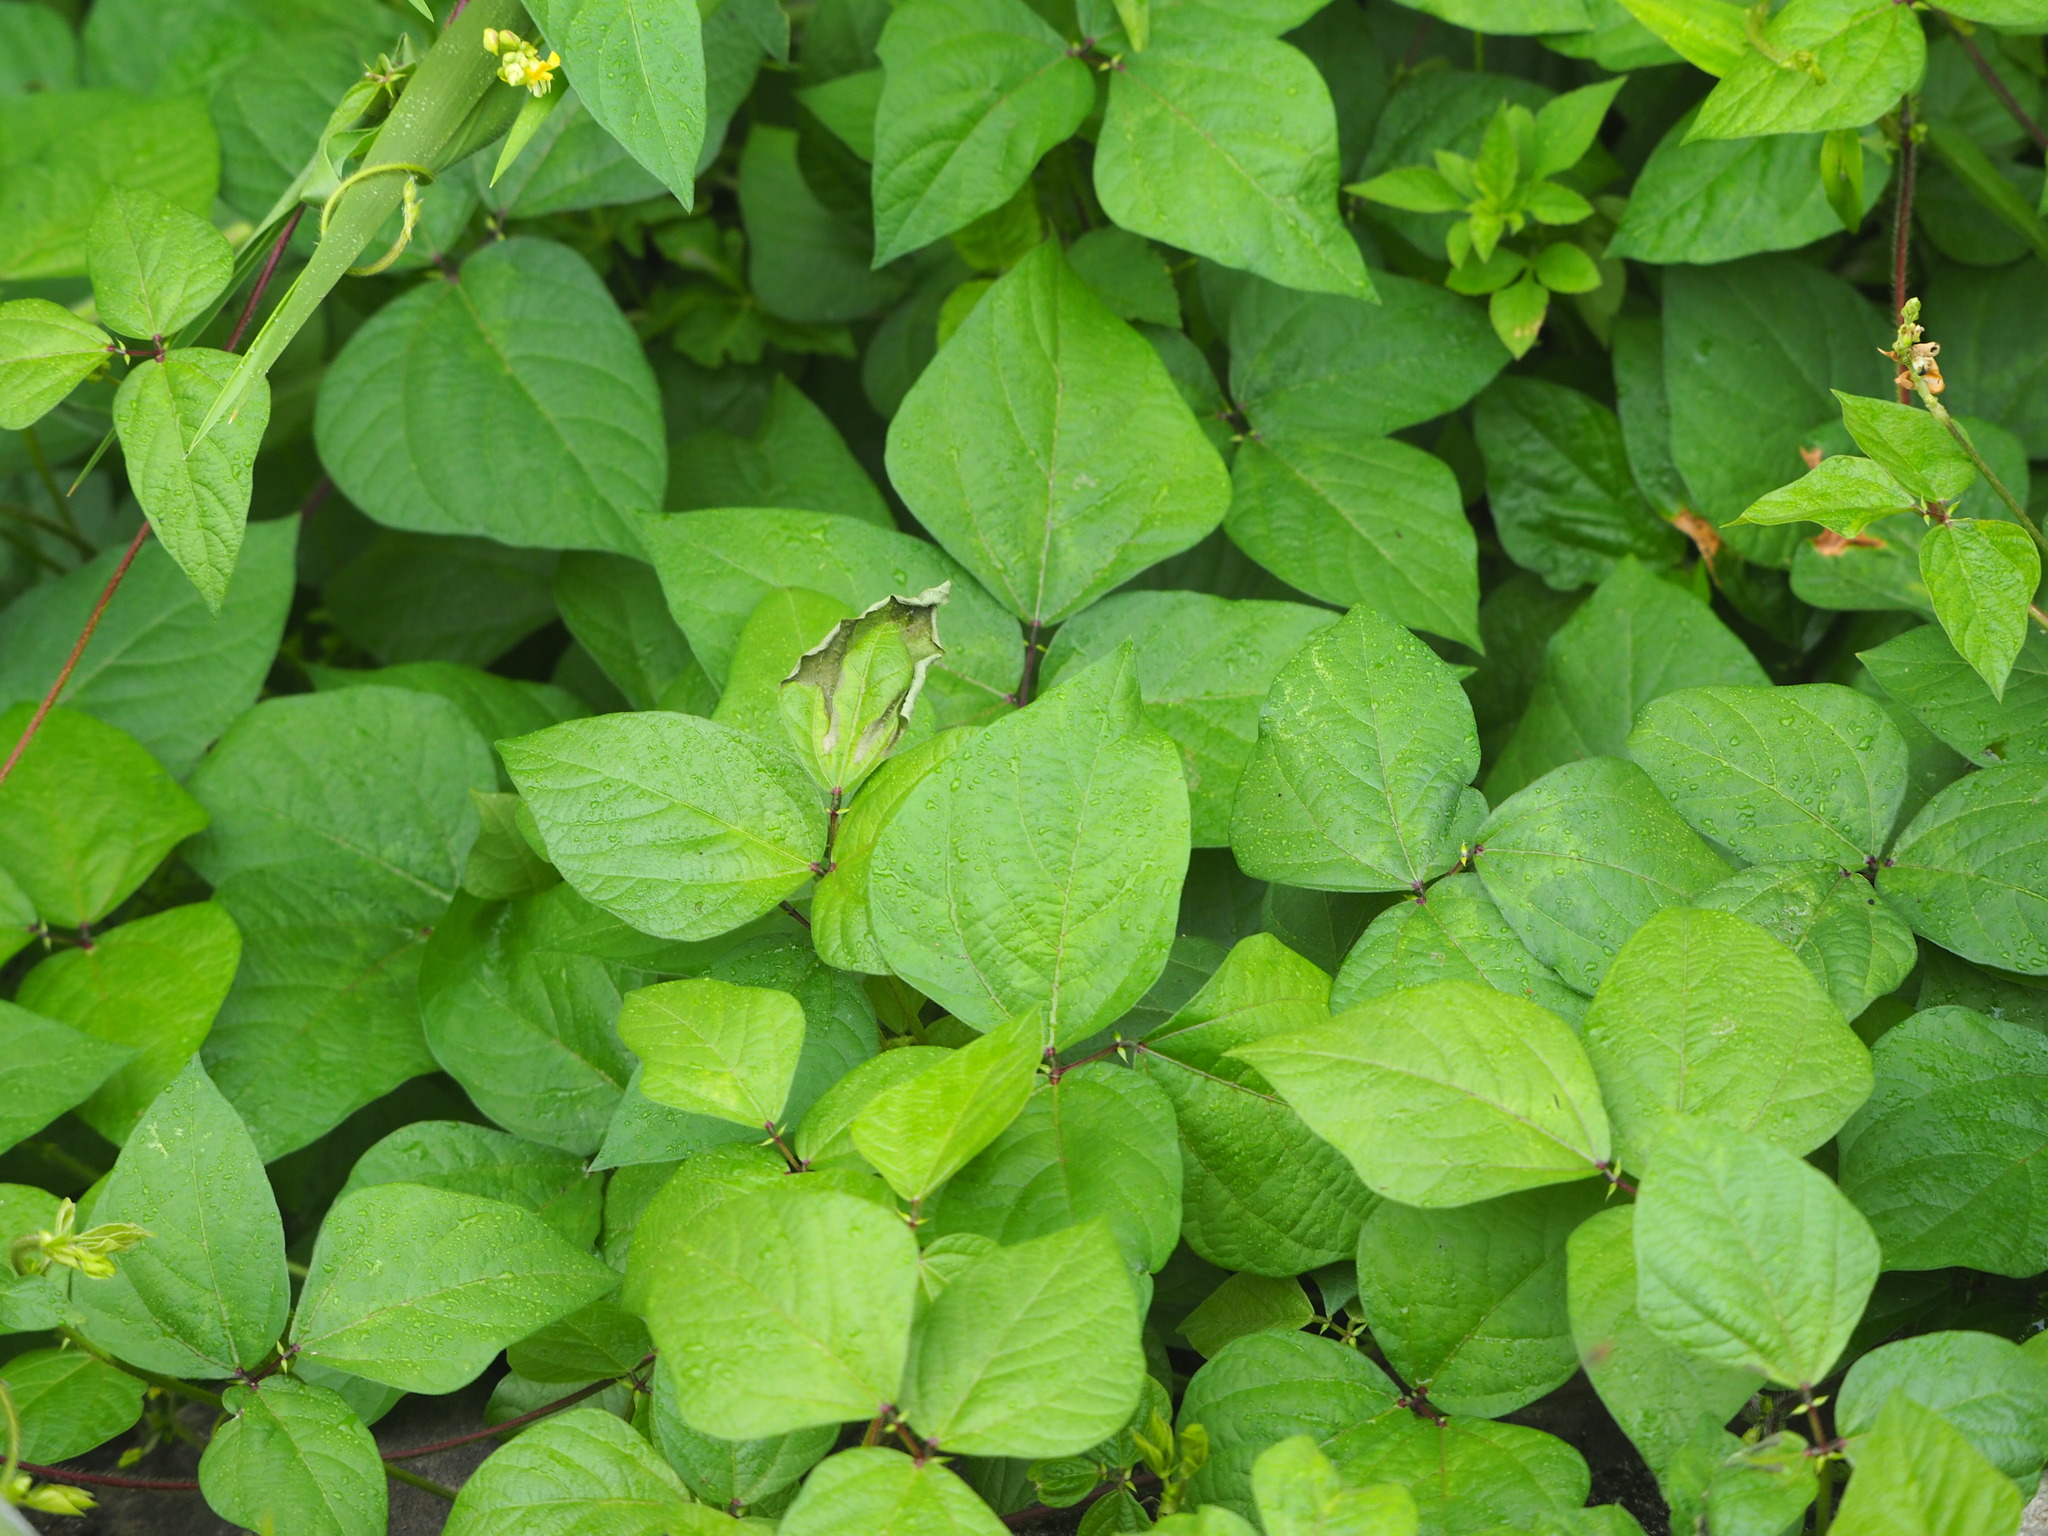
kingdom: Plantae
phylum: Tracheophyta
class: Magnoliopsida
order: Fabales
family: Fabaceae
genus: Vigna
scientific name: Vigna reflexopilosa
